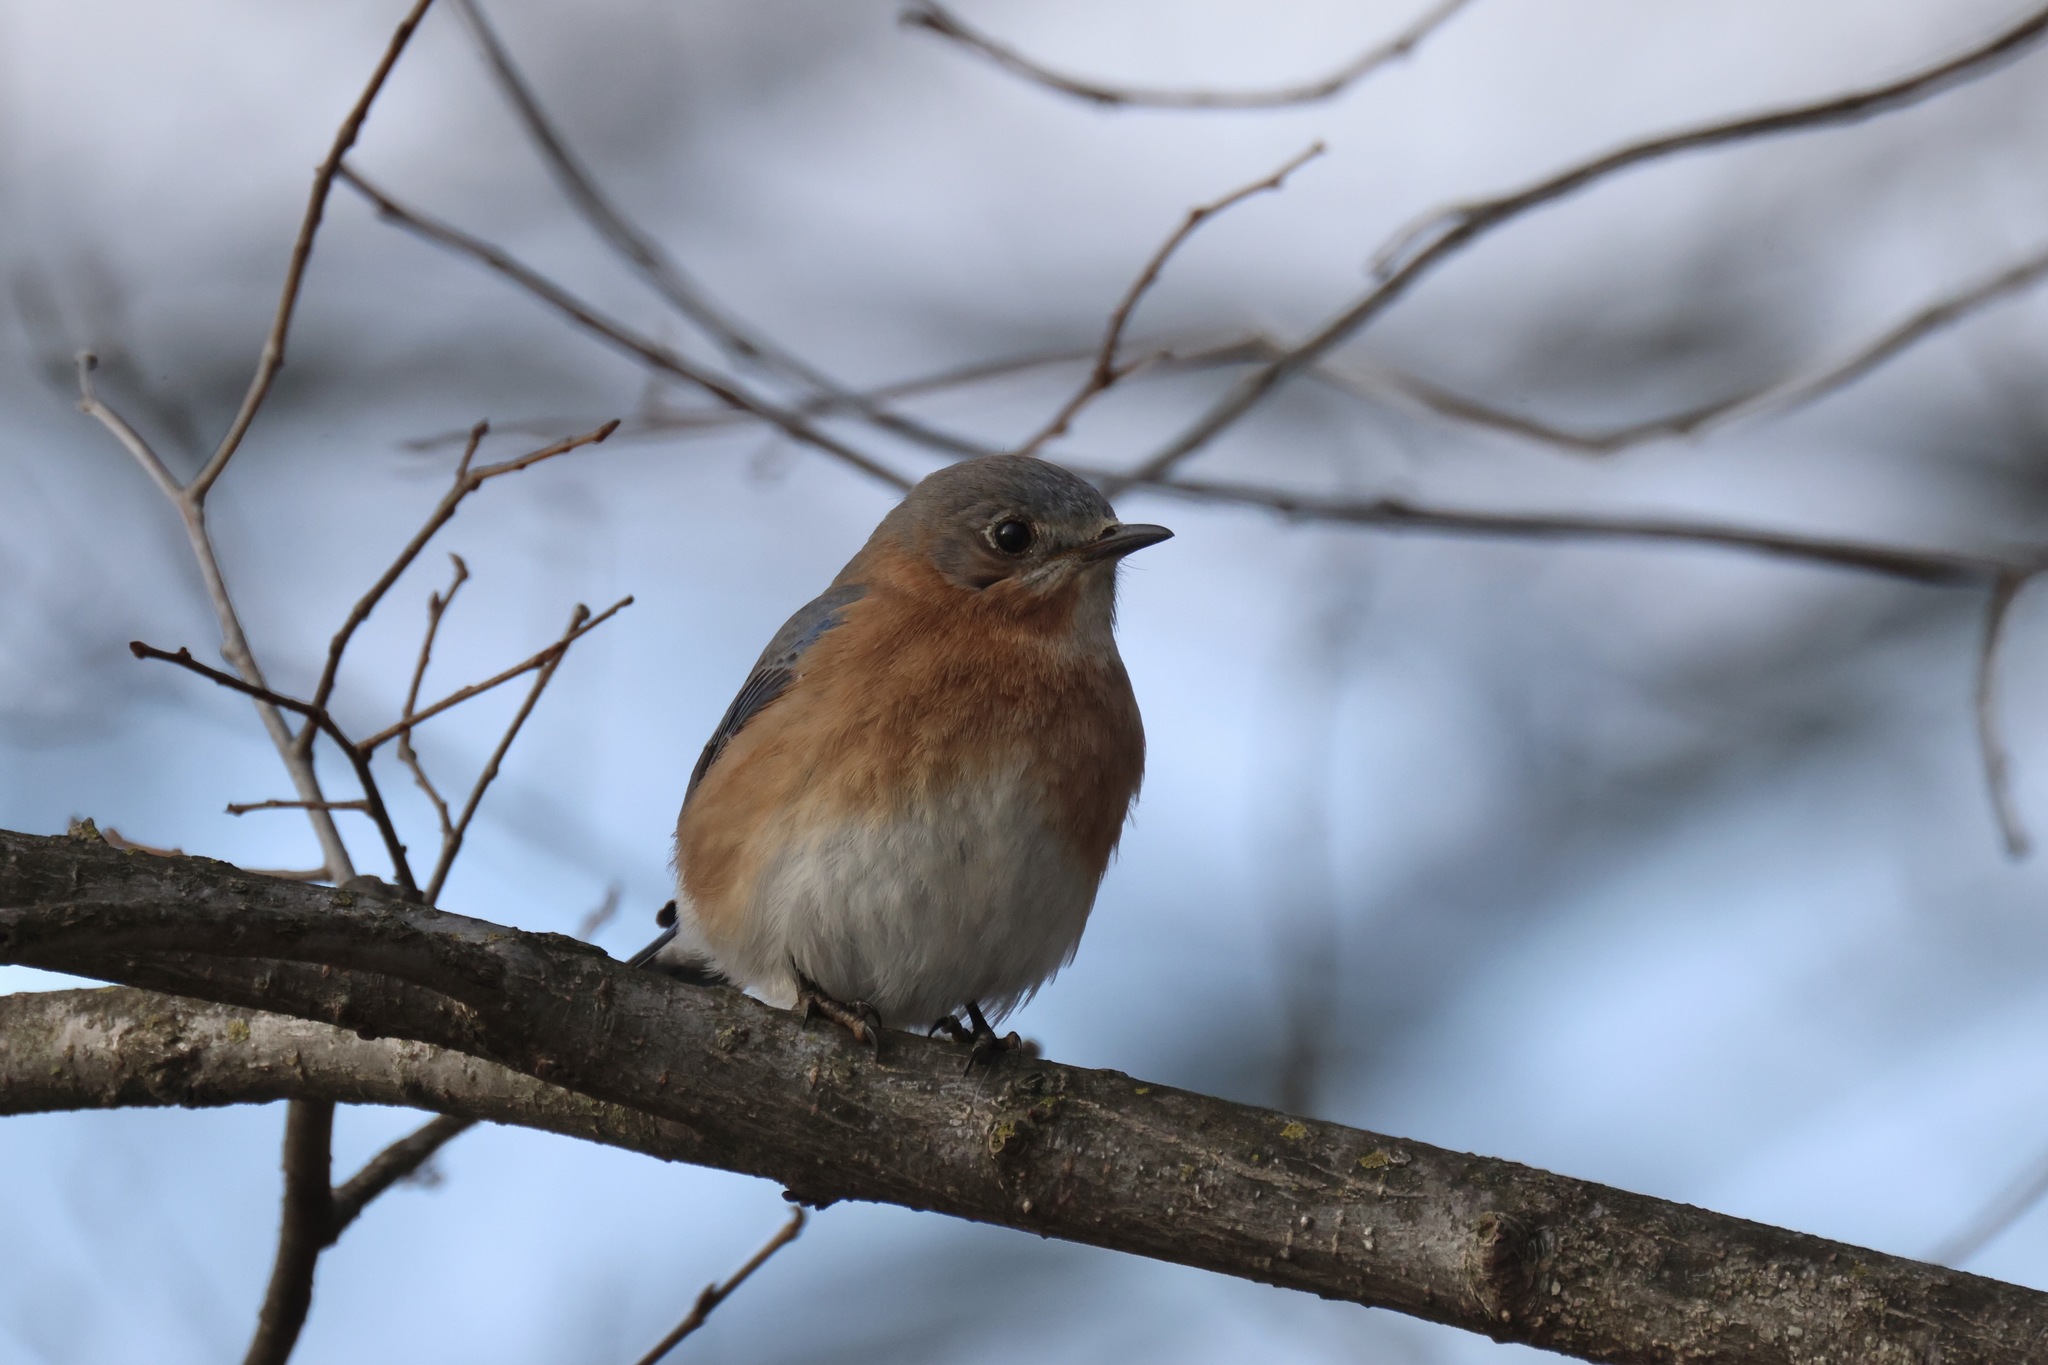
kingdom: Animalia
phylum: Chordata
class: Aves
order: Passeriformes
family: Turdidae
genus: Sialia
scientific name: Sialia sialis
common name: Eastern bluebird
